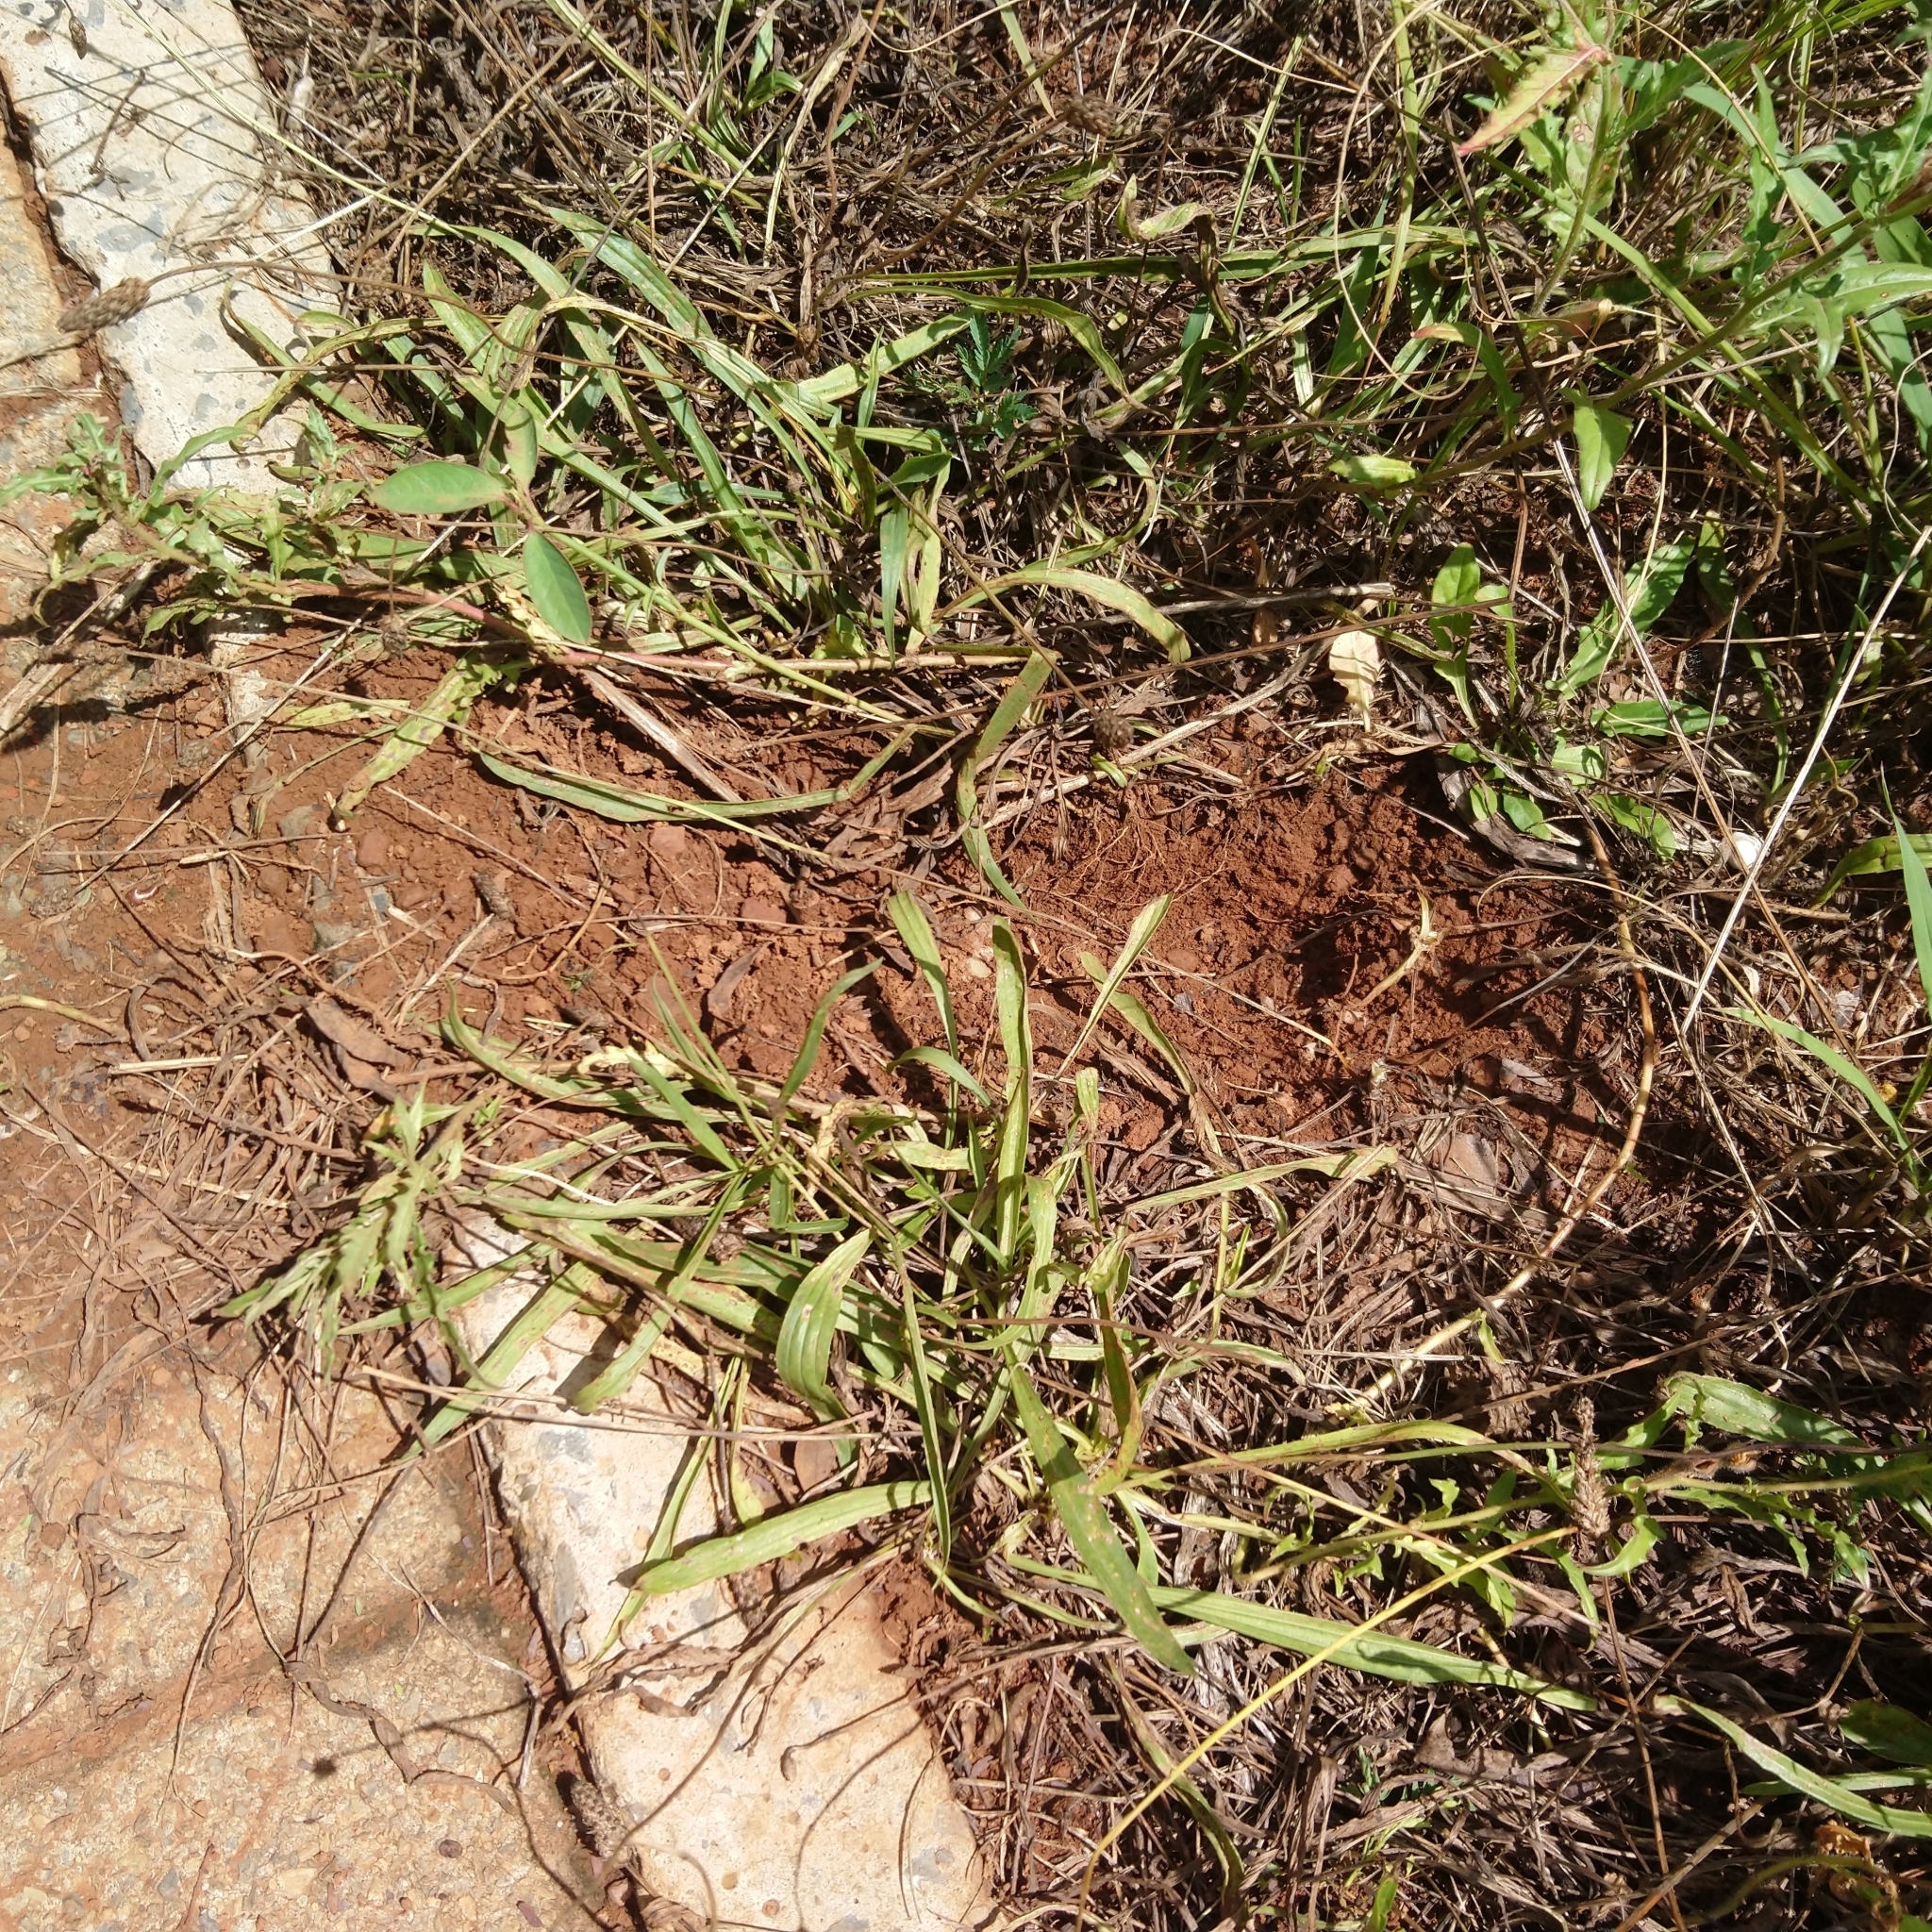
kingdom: Animalia
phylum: Chordata
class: Mammalia
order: Rodentia
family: Hystricidae
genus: Hystrix
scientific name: Hystrix africaeaustralis
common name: Cape porcupine
